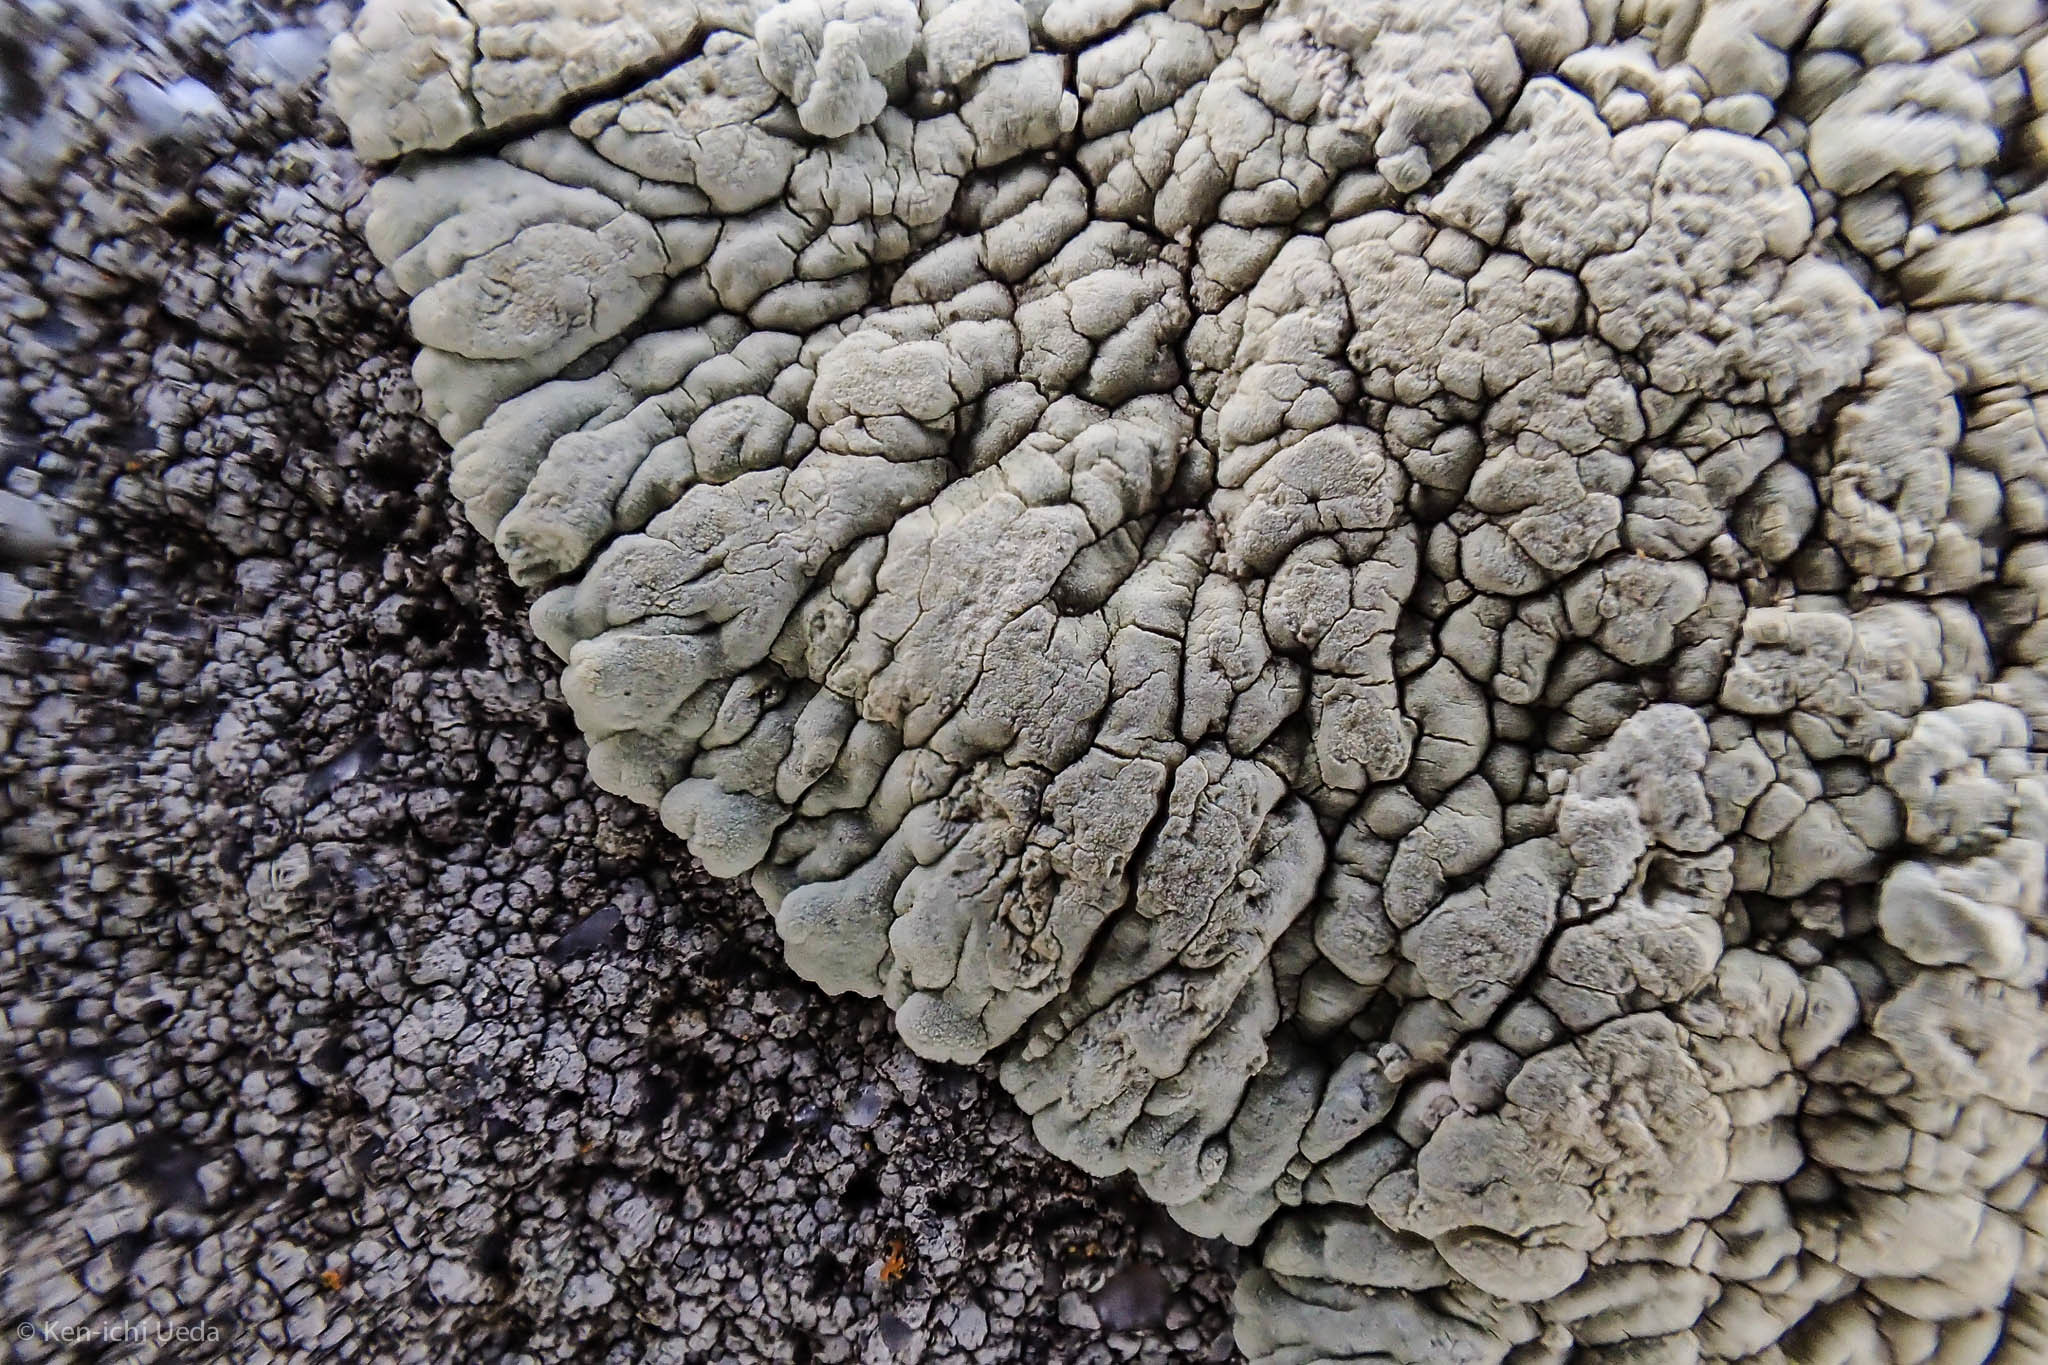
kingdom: Fungi
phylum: Ascomycota
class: Lecanoromycetes
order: Lecanorales
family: Lecanoraceae
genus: Protoparmeliopsis
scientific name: Protoparmeliopsis pinguis
